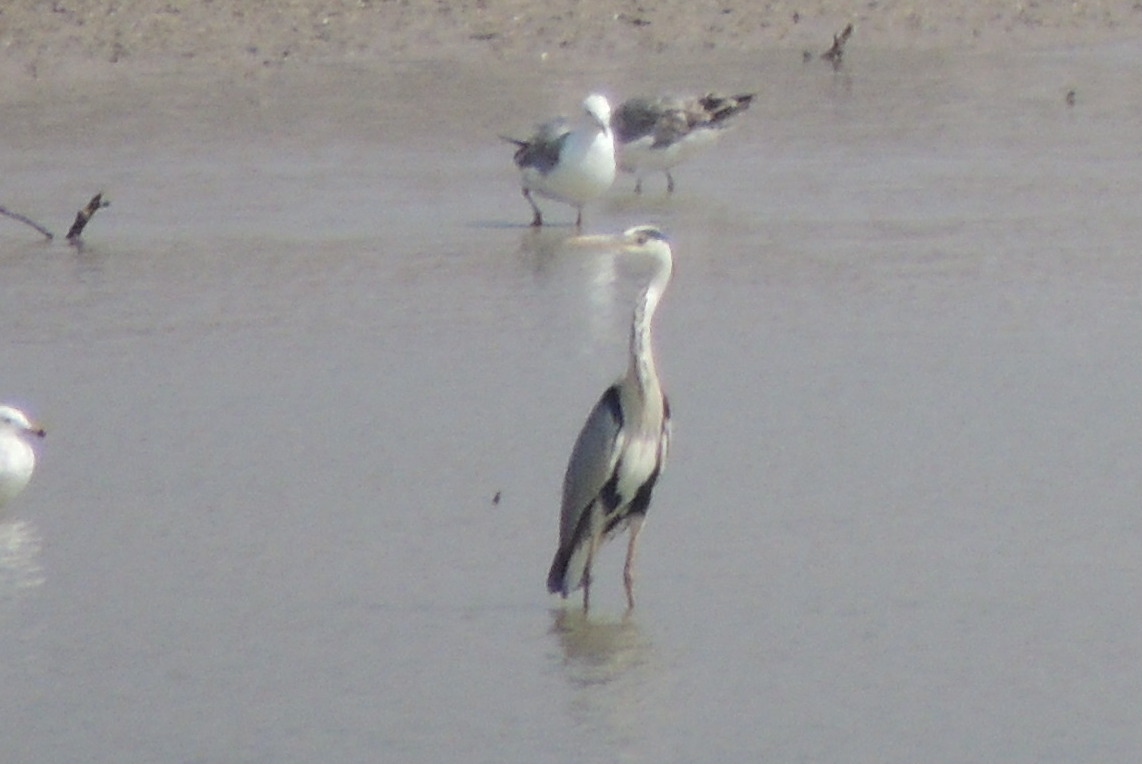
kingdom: Animalia
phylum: Chordata
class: Aves
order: Pelecaniformes
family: Ardeidae
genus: Ardea
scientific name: Ardea cinerea
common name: Grey heron
